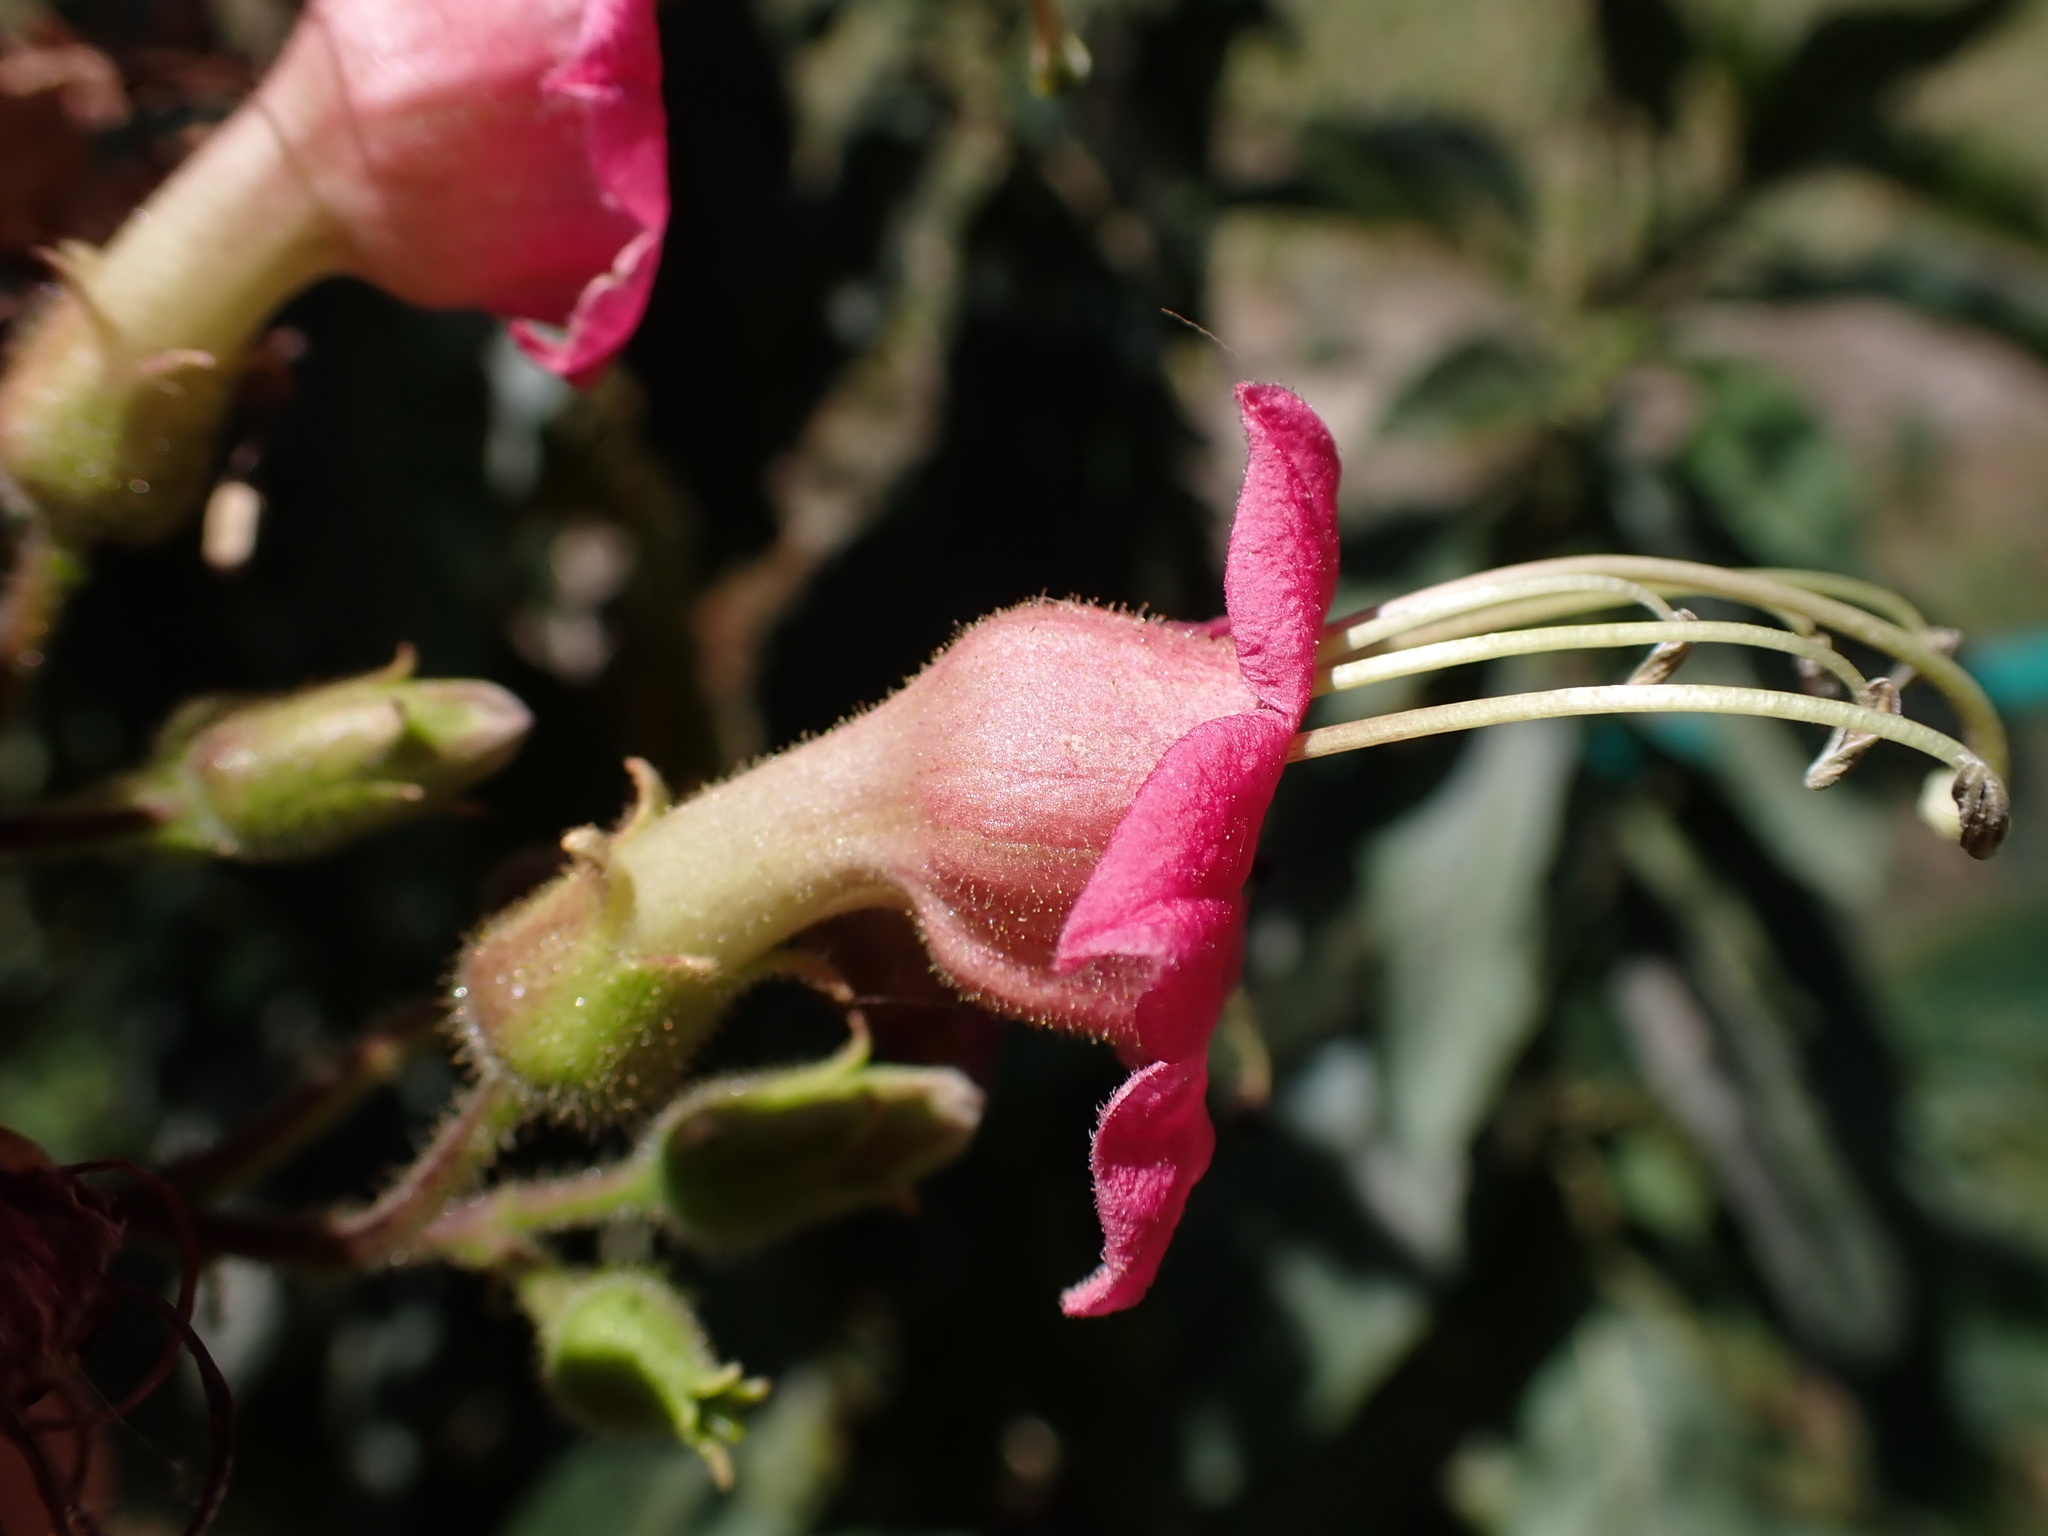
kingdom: Plantae
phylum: Tracheophyta
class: Magnoliopsida
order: Solanales
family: Solanaceae
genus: Nicotiana
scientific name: Nicotiana tomentosiformis
